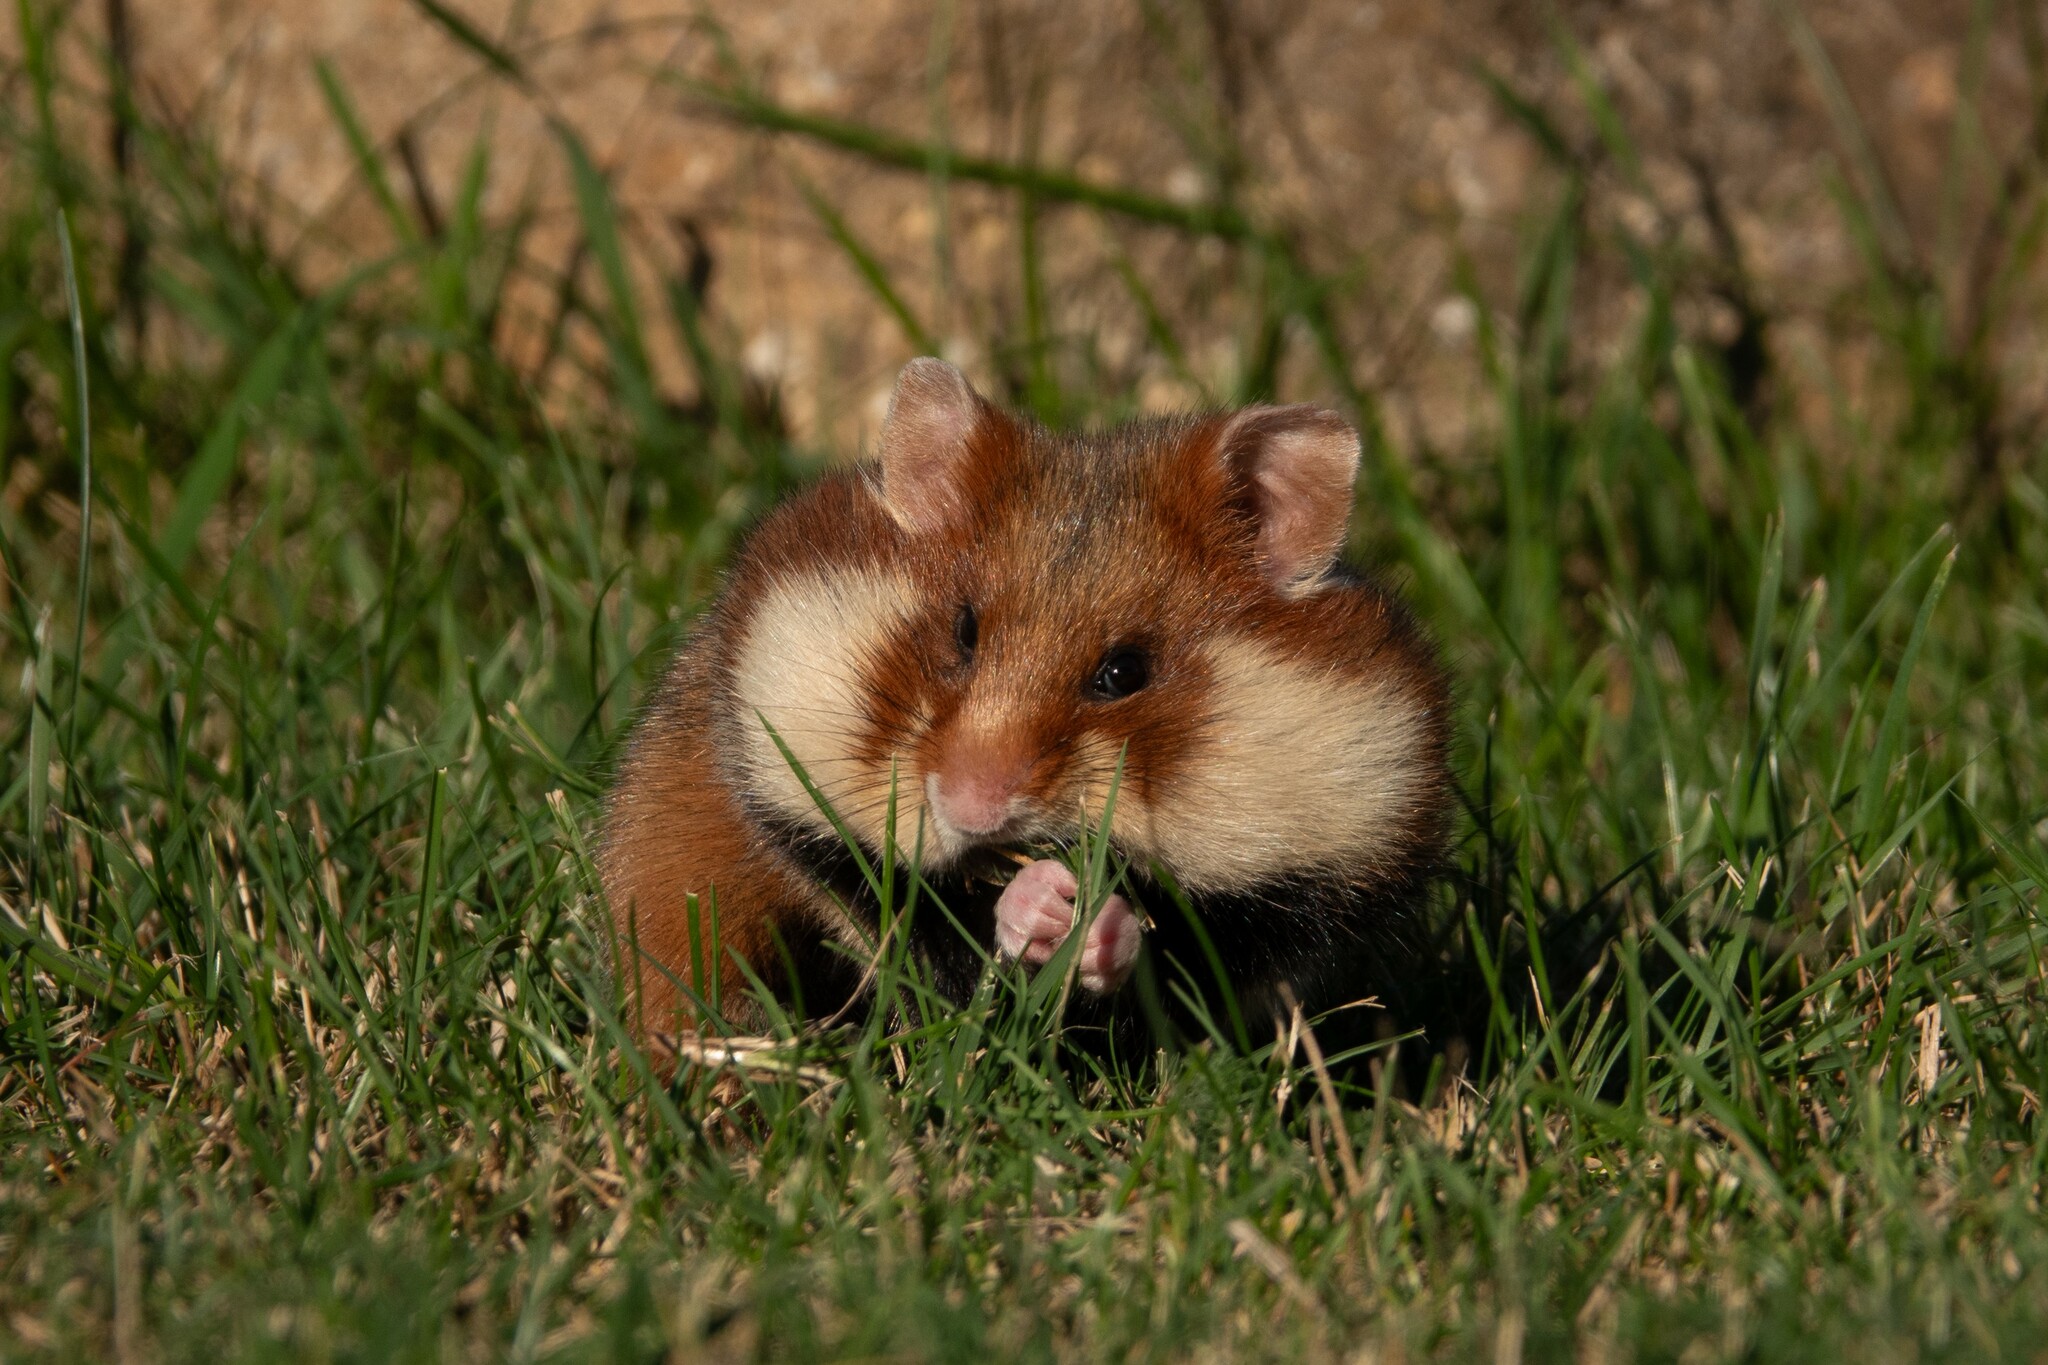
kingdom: Animalia
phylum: Chordata
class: Mammalia
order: Rodentia
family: Cricetidae
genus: Cricetus
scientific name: Cricetus cricetus
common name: Common hamster
